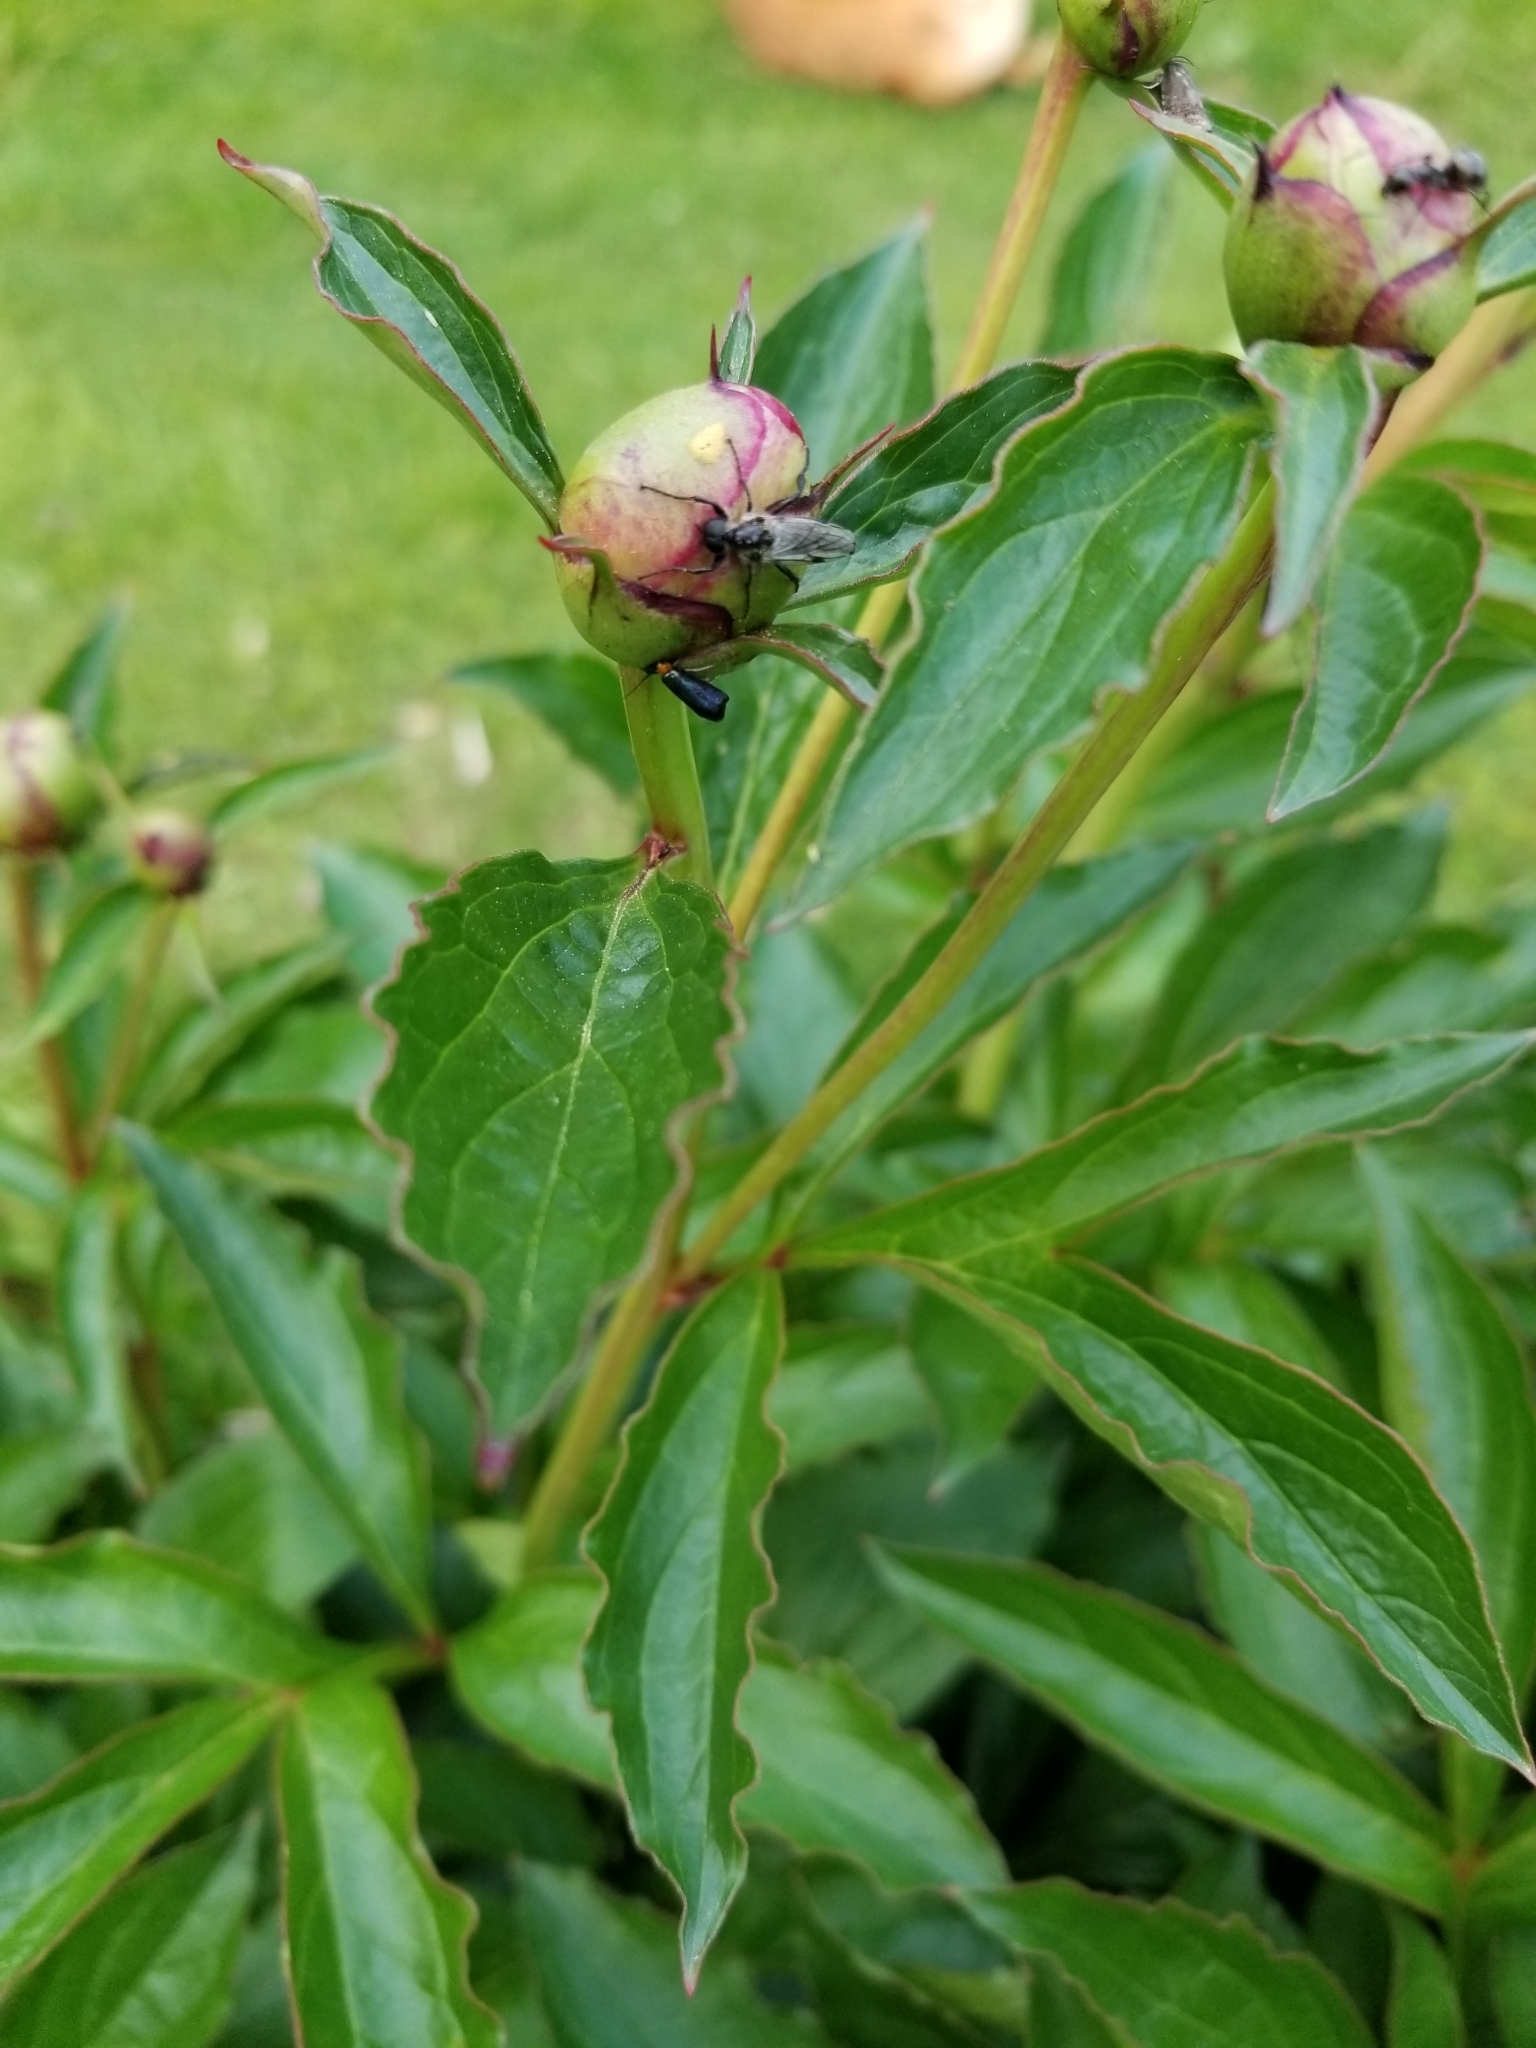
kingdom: Animalia
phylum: Arthropoda
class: Insecta
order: Diptera
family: Bibionidae
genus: Bibio
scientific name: Bibio albipennis
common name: White-winged march fly
